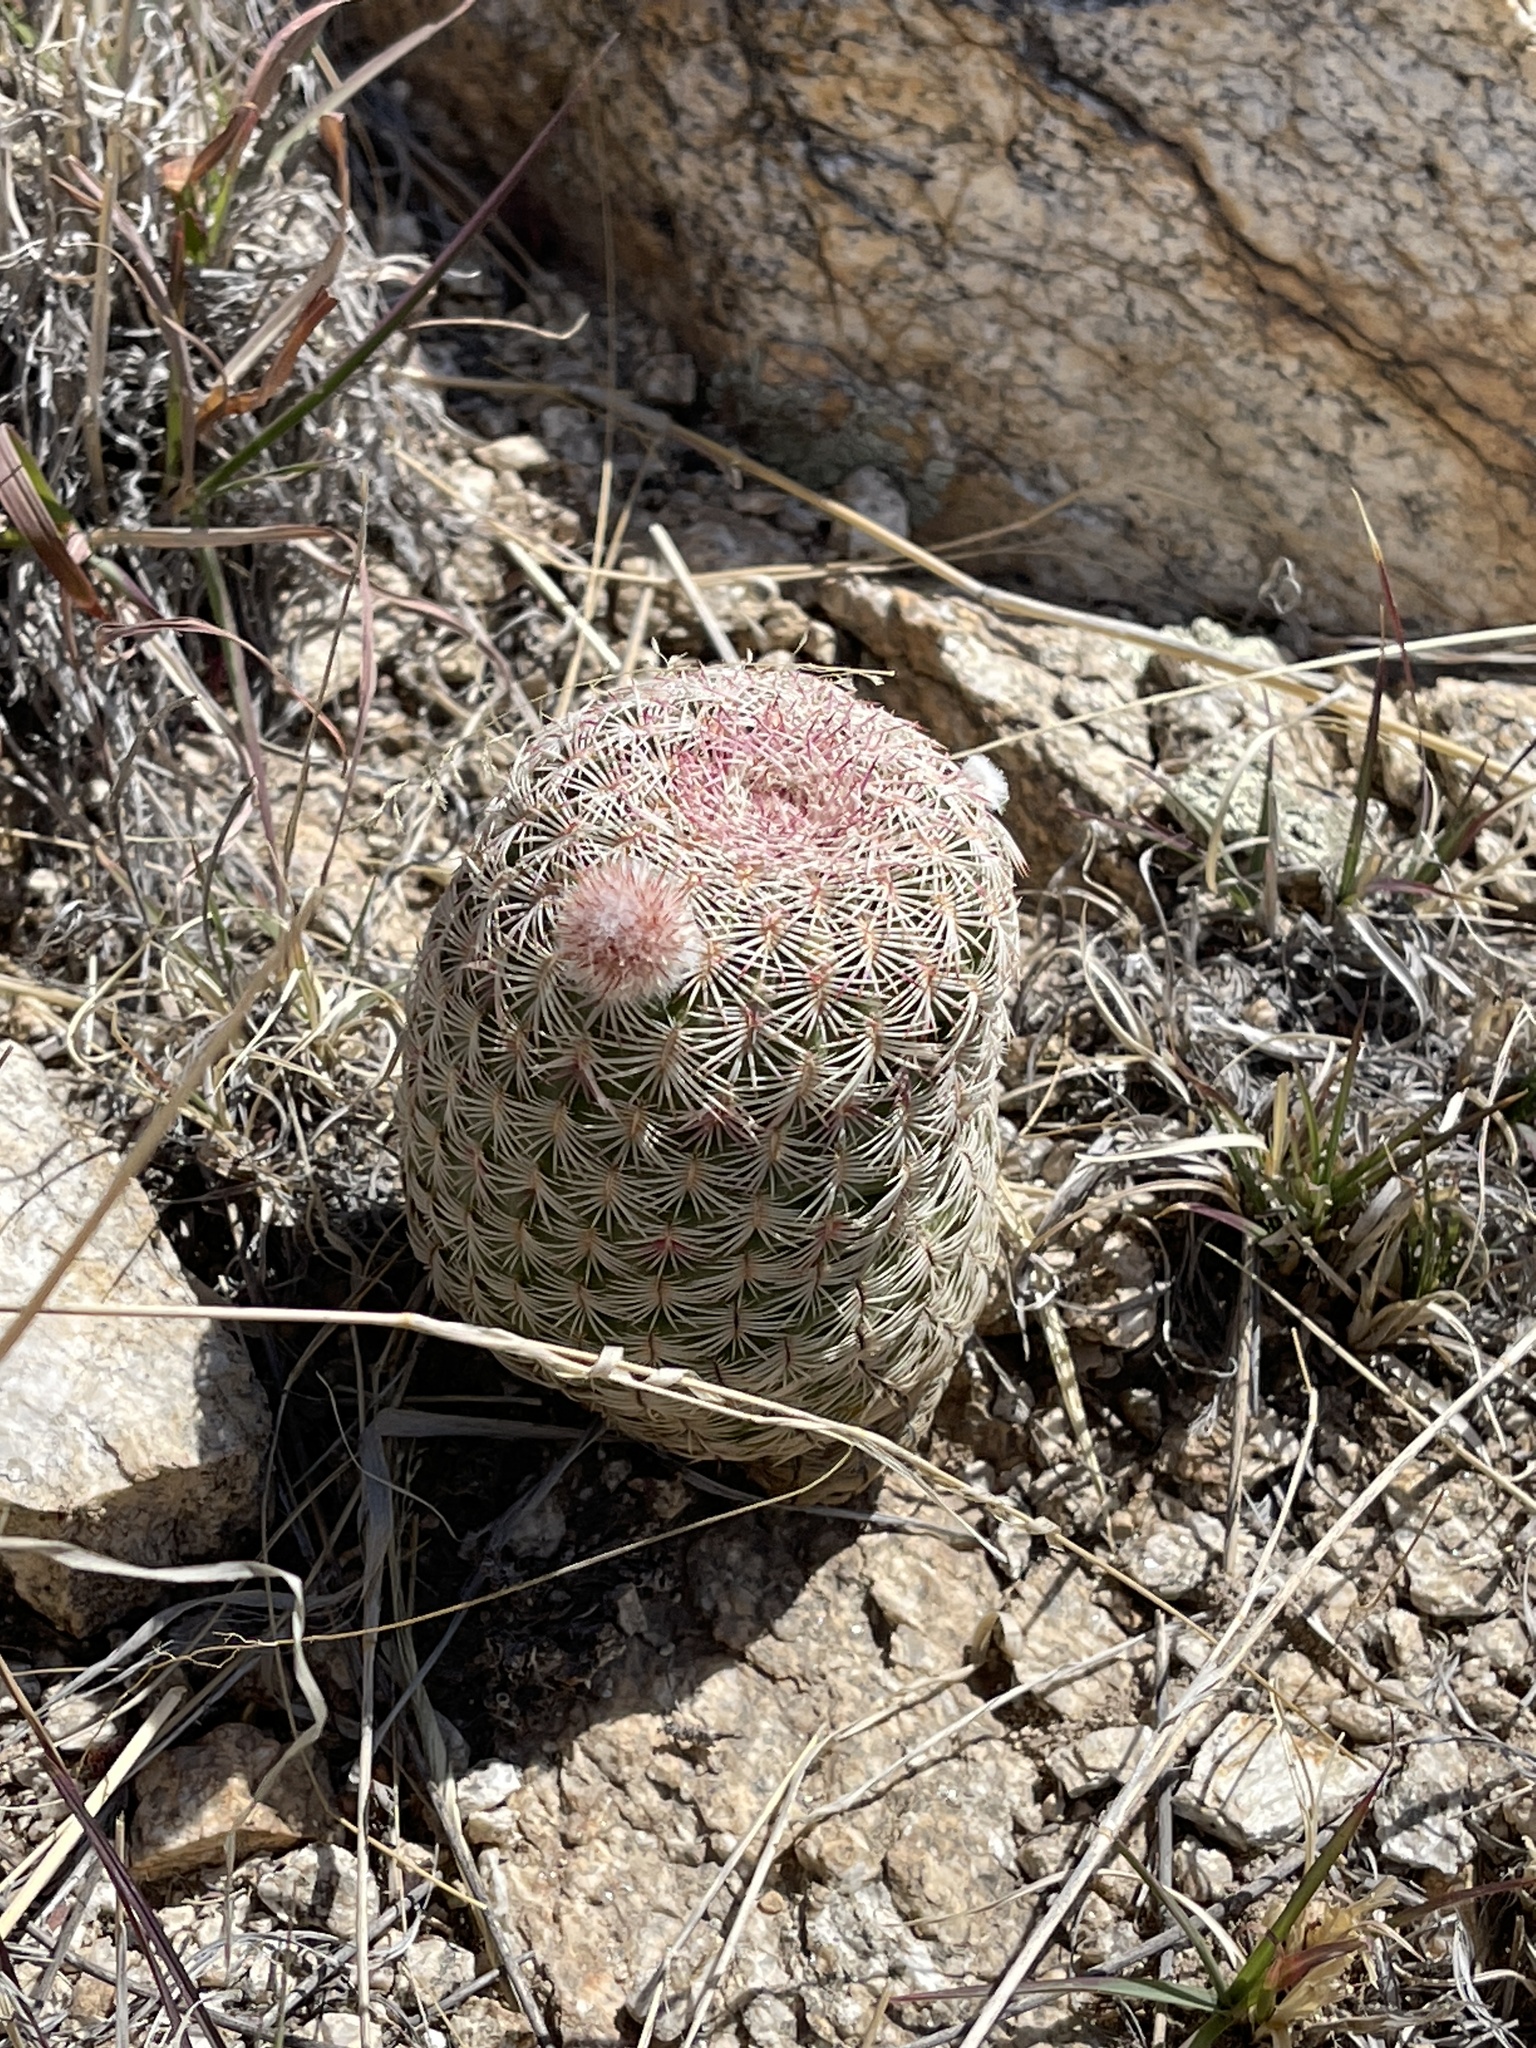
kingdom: Plantae
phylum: Tracheophyta
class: Magnoliopsida
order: Caryophyllales
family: Cactaceae
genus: Echinocereus
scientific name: Echinocereus rigidissimus
